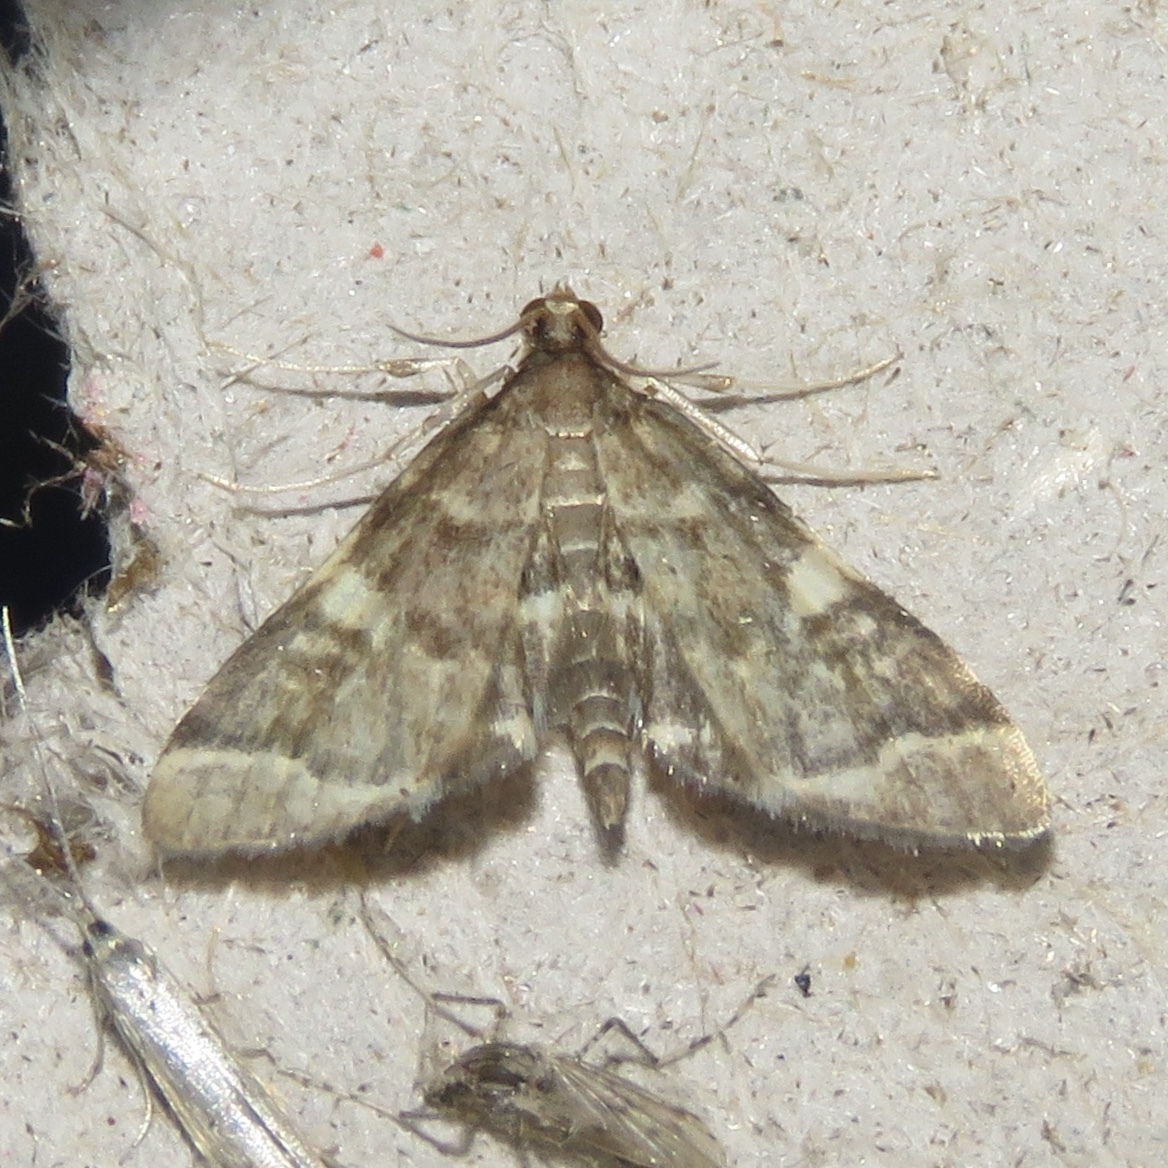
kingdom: Animalia
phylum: Arthropoda
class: Insecta
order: Lepidoptera
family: Crambidae
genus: Anageshna
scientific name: Anageshna primordialis
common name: Yellow-spotted webworm moth
